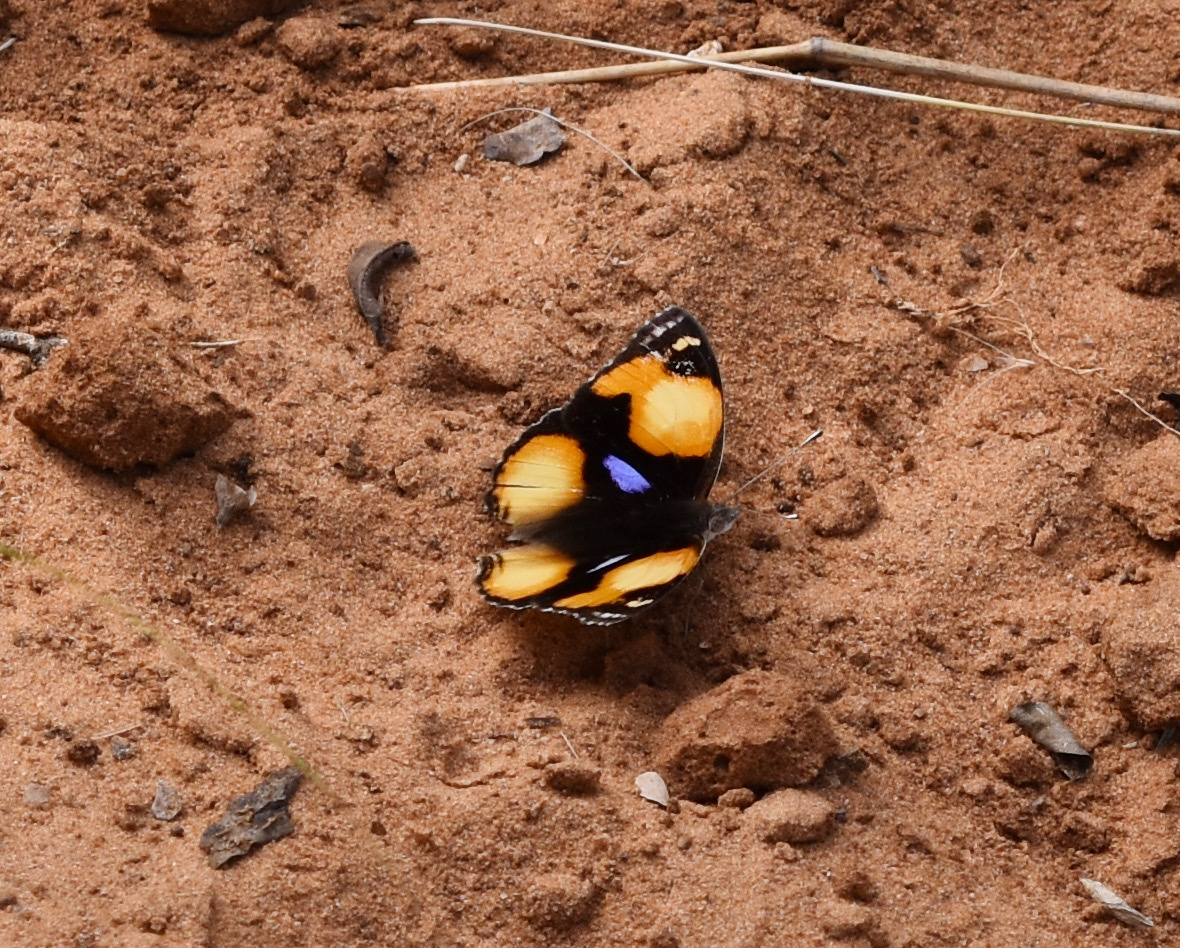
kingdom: Animalia
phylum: Arthropoda
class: Insecta
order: Lepidoptera
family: Nymphalidae
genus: Junonia
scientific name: Junonia hierta
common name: Yellow pansy
